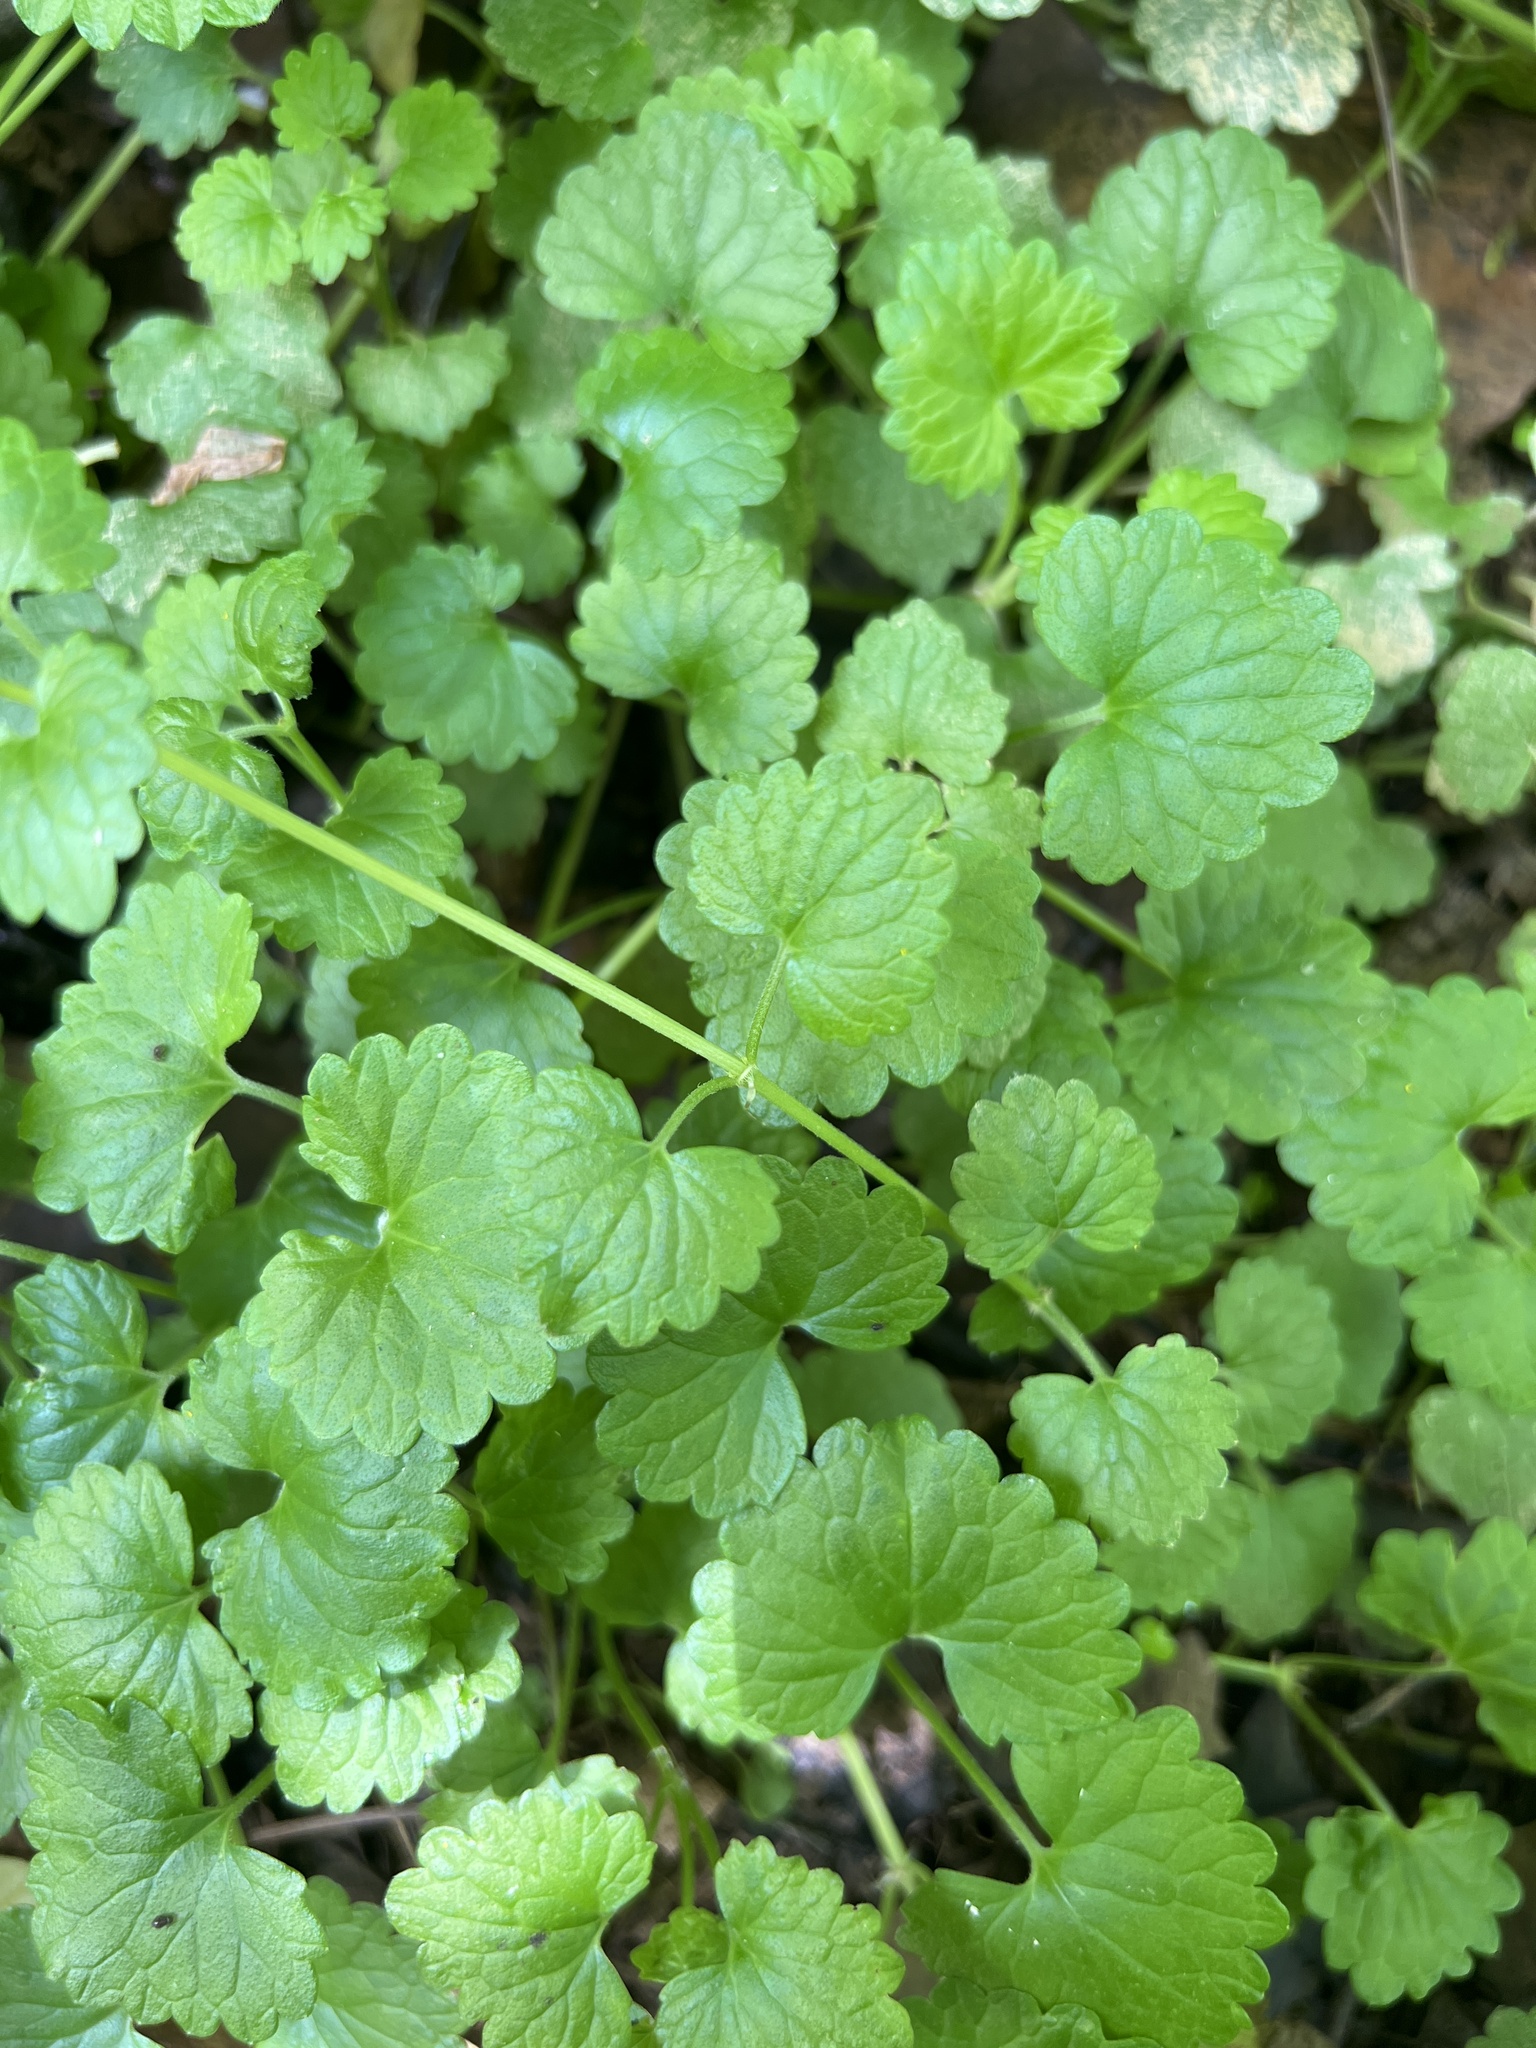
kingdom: Plantae
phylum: Tracheophyta
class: Magnoliopsida
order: Lamiales
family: Lamiaceae
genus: Glechoma
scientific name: Glechoma hederacea
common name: Ground ivy
